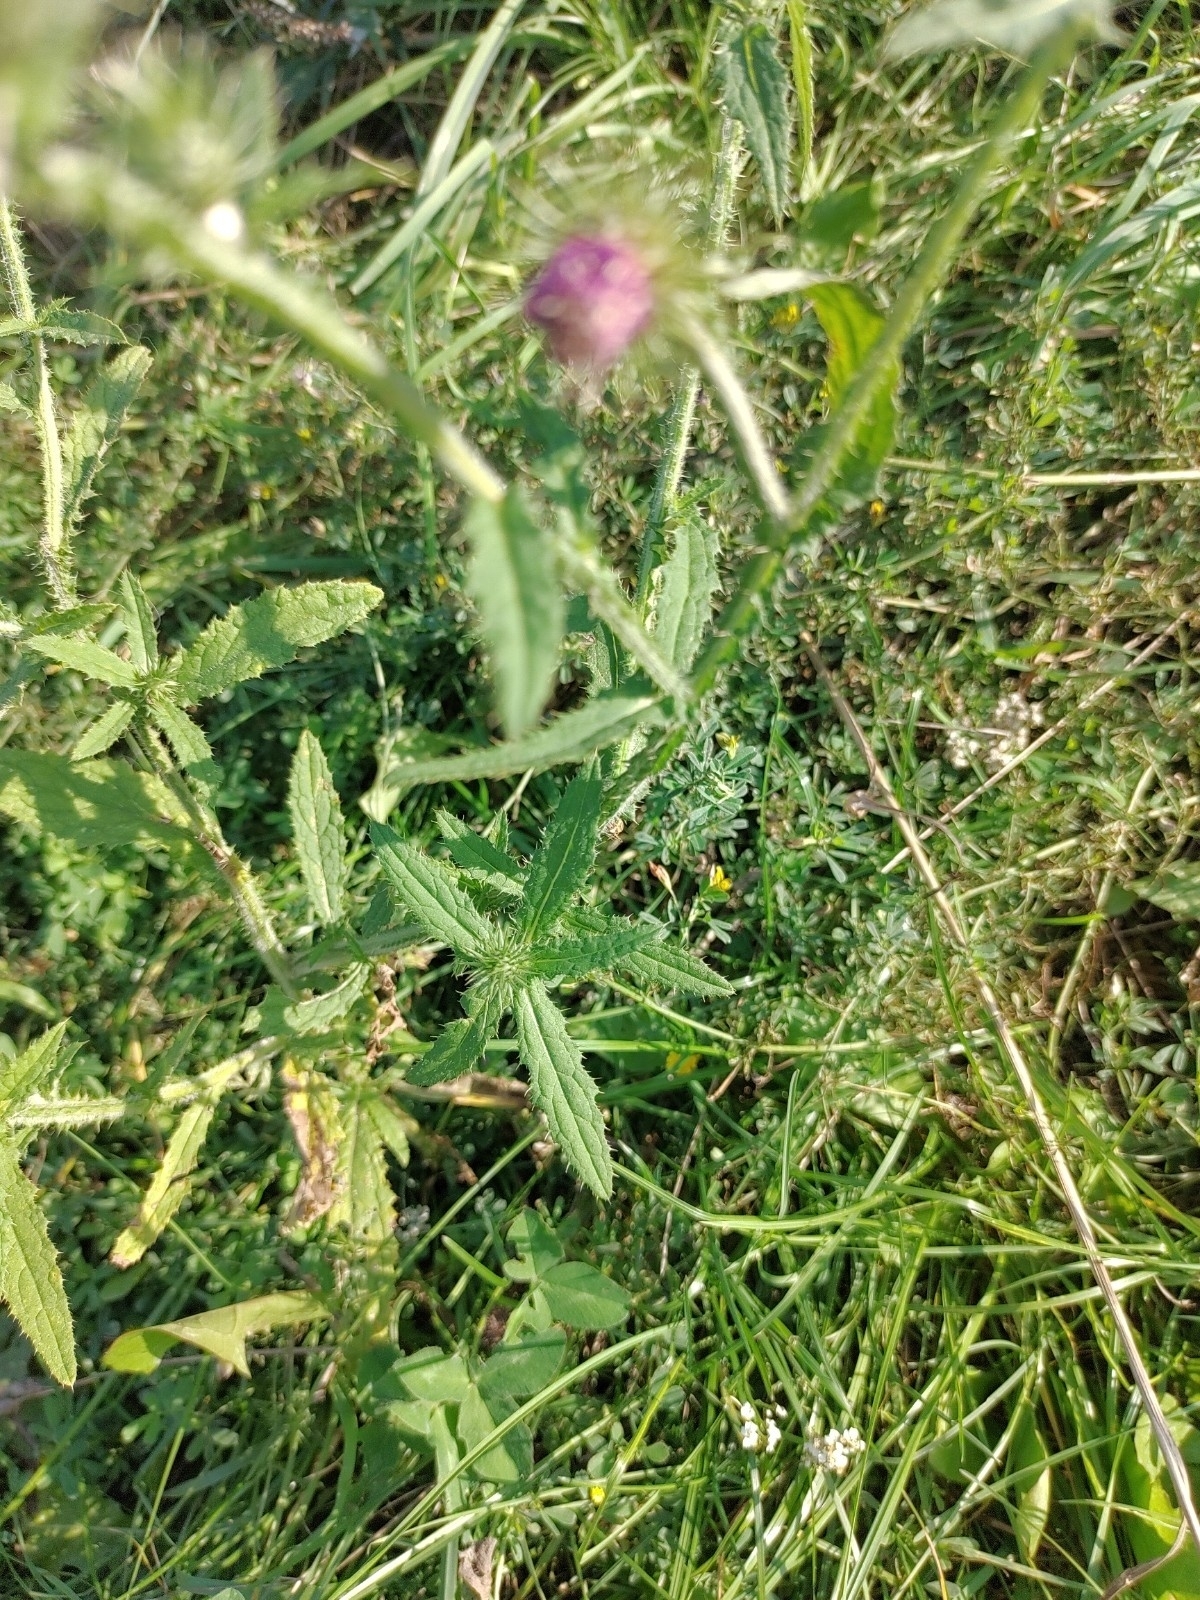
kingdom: Plantae
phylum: Tracheophyta
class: Magnoliopsida
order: Asterales
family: Asteraceae
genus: Carduus
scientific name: Carduus crispus
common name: Welted thistle
